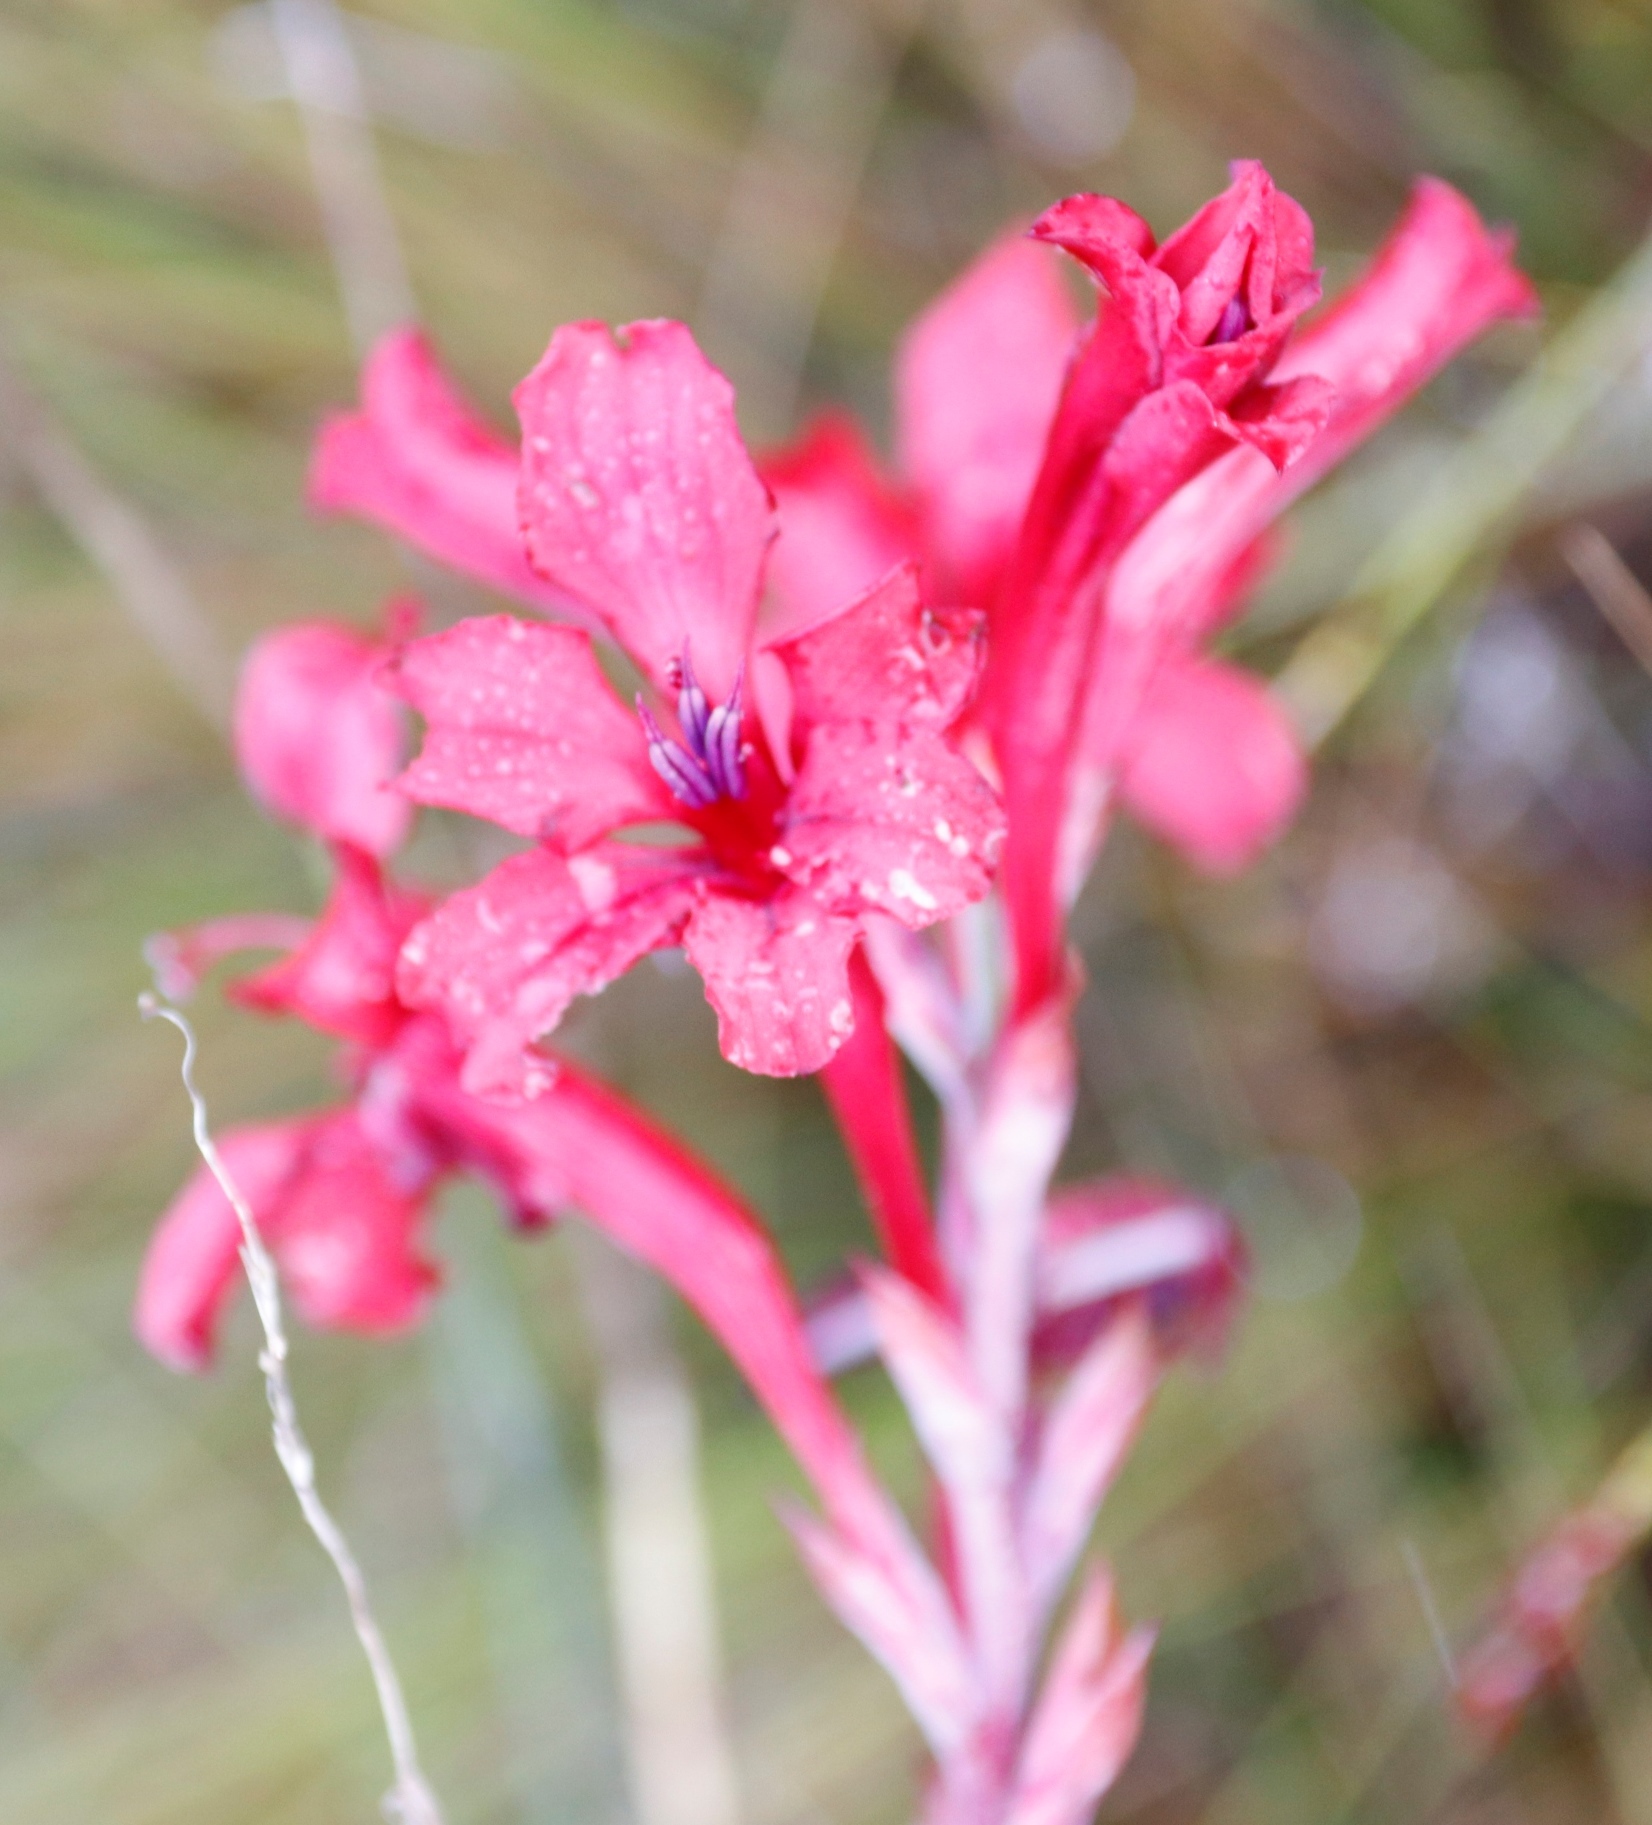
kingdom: Plantae
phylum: Tracheophyta
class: Liliopsida
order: Asparagales
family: Iridaceae
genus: Tritoniopsis
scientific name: Tritoniopsis pulchra
